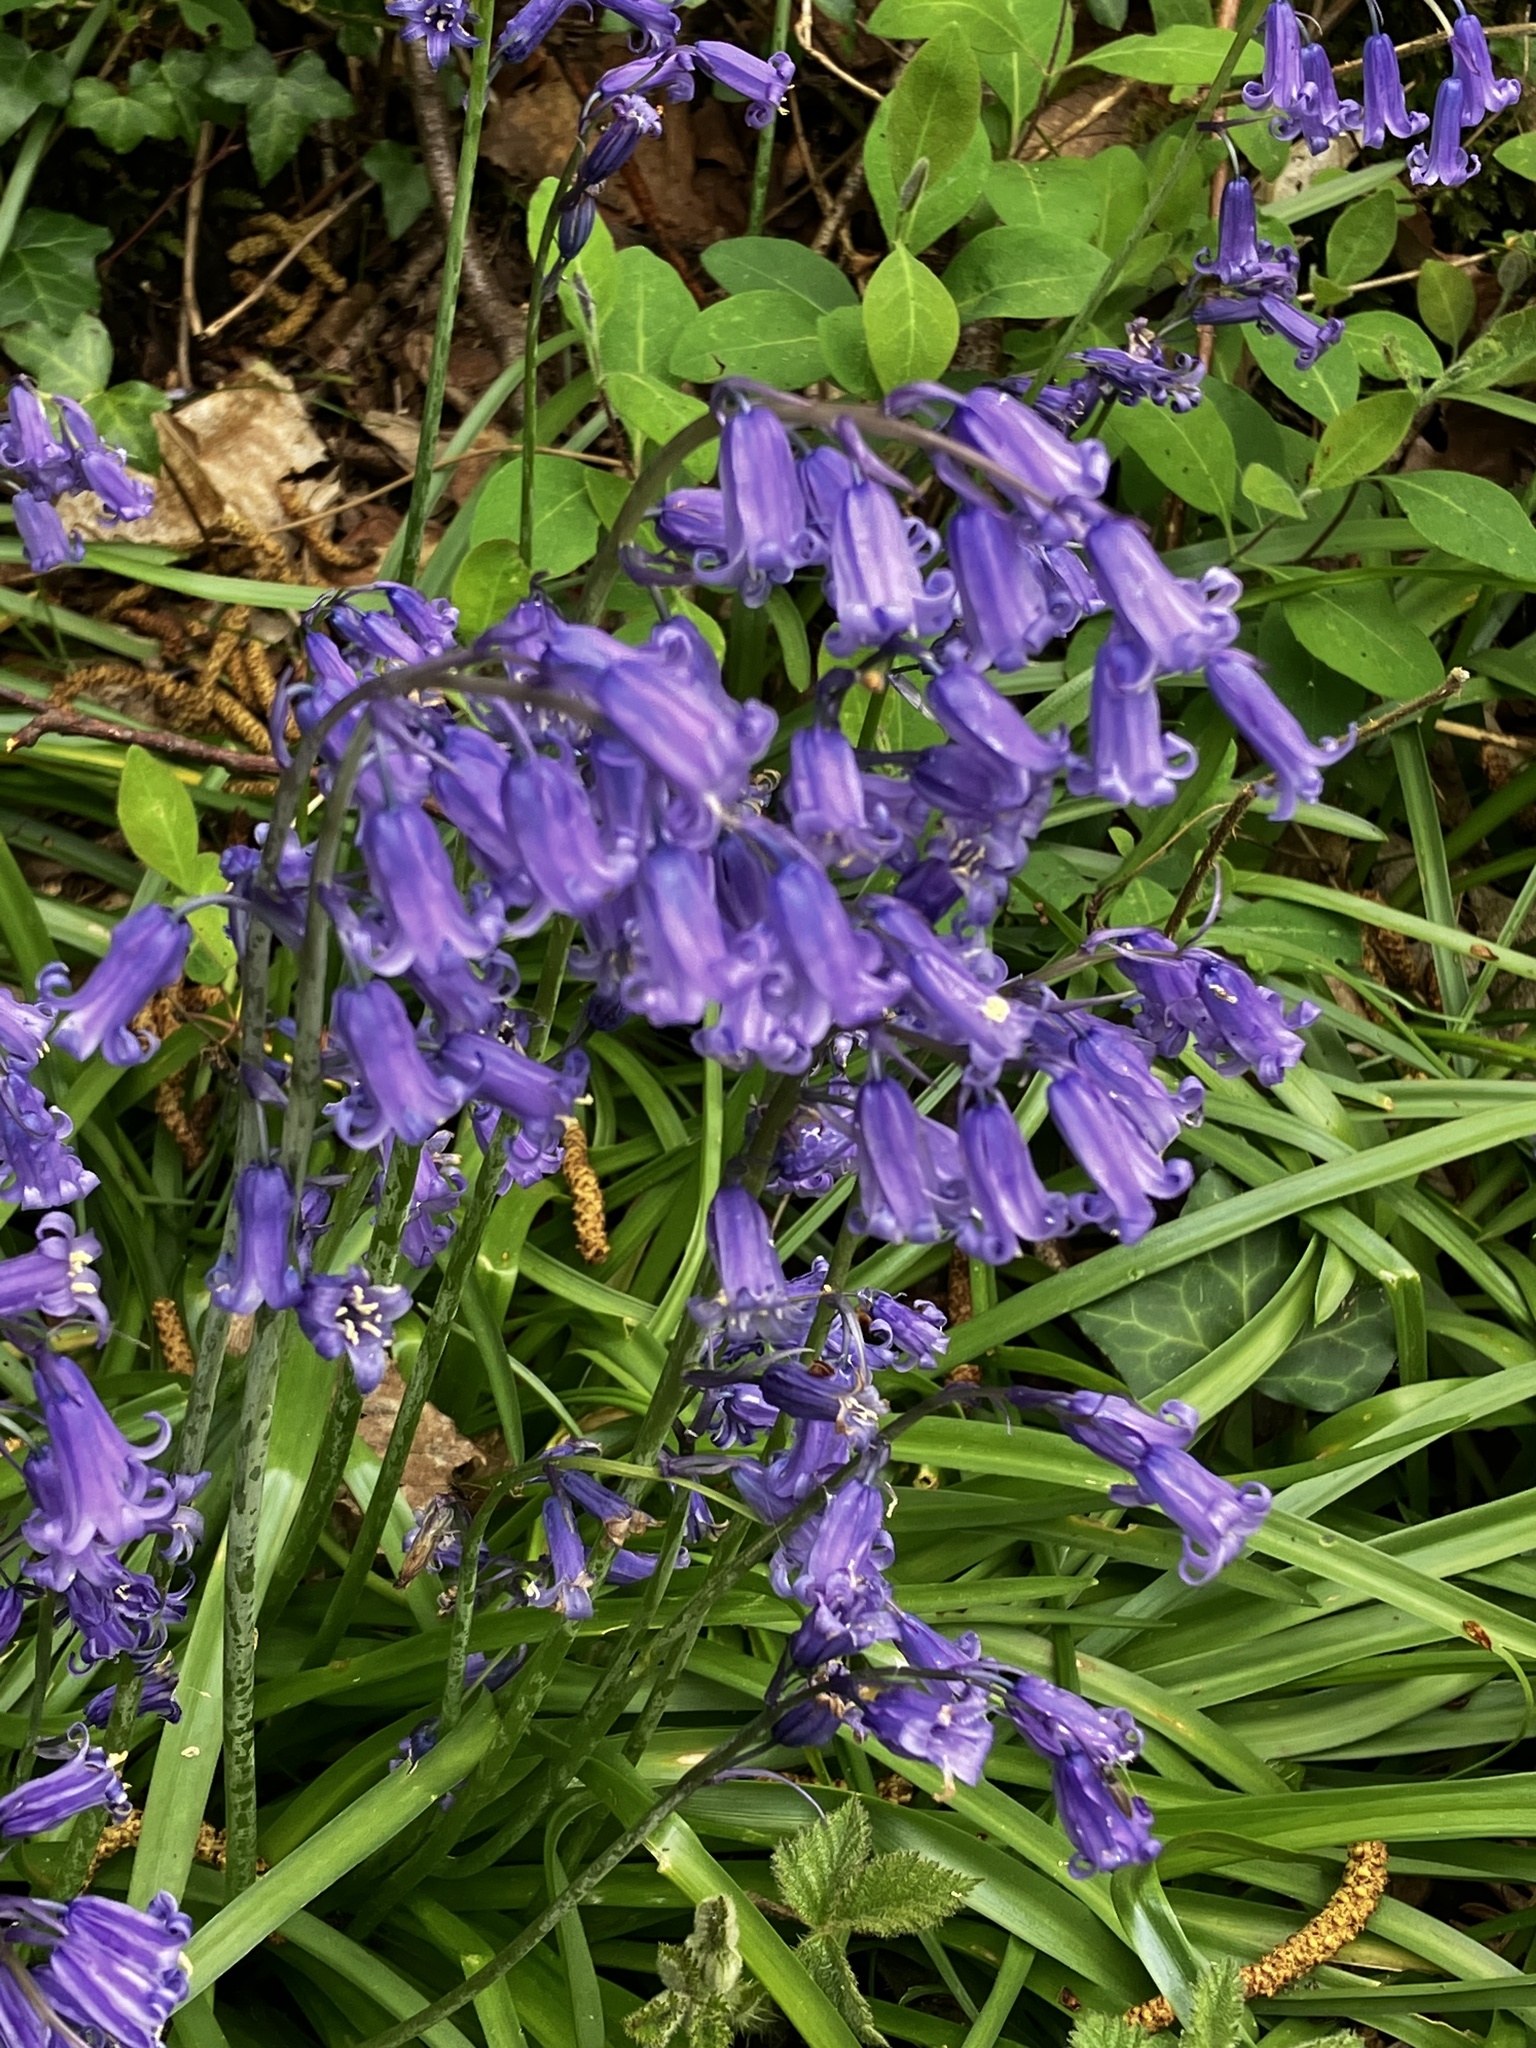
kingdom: Plantae
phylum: Tracheophyta
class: Liliopsida
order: Asparagales
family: Asparagaceae
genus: Hyacinthoides
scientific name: Hyacinthoides non-scripta
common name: Bluebell
